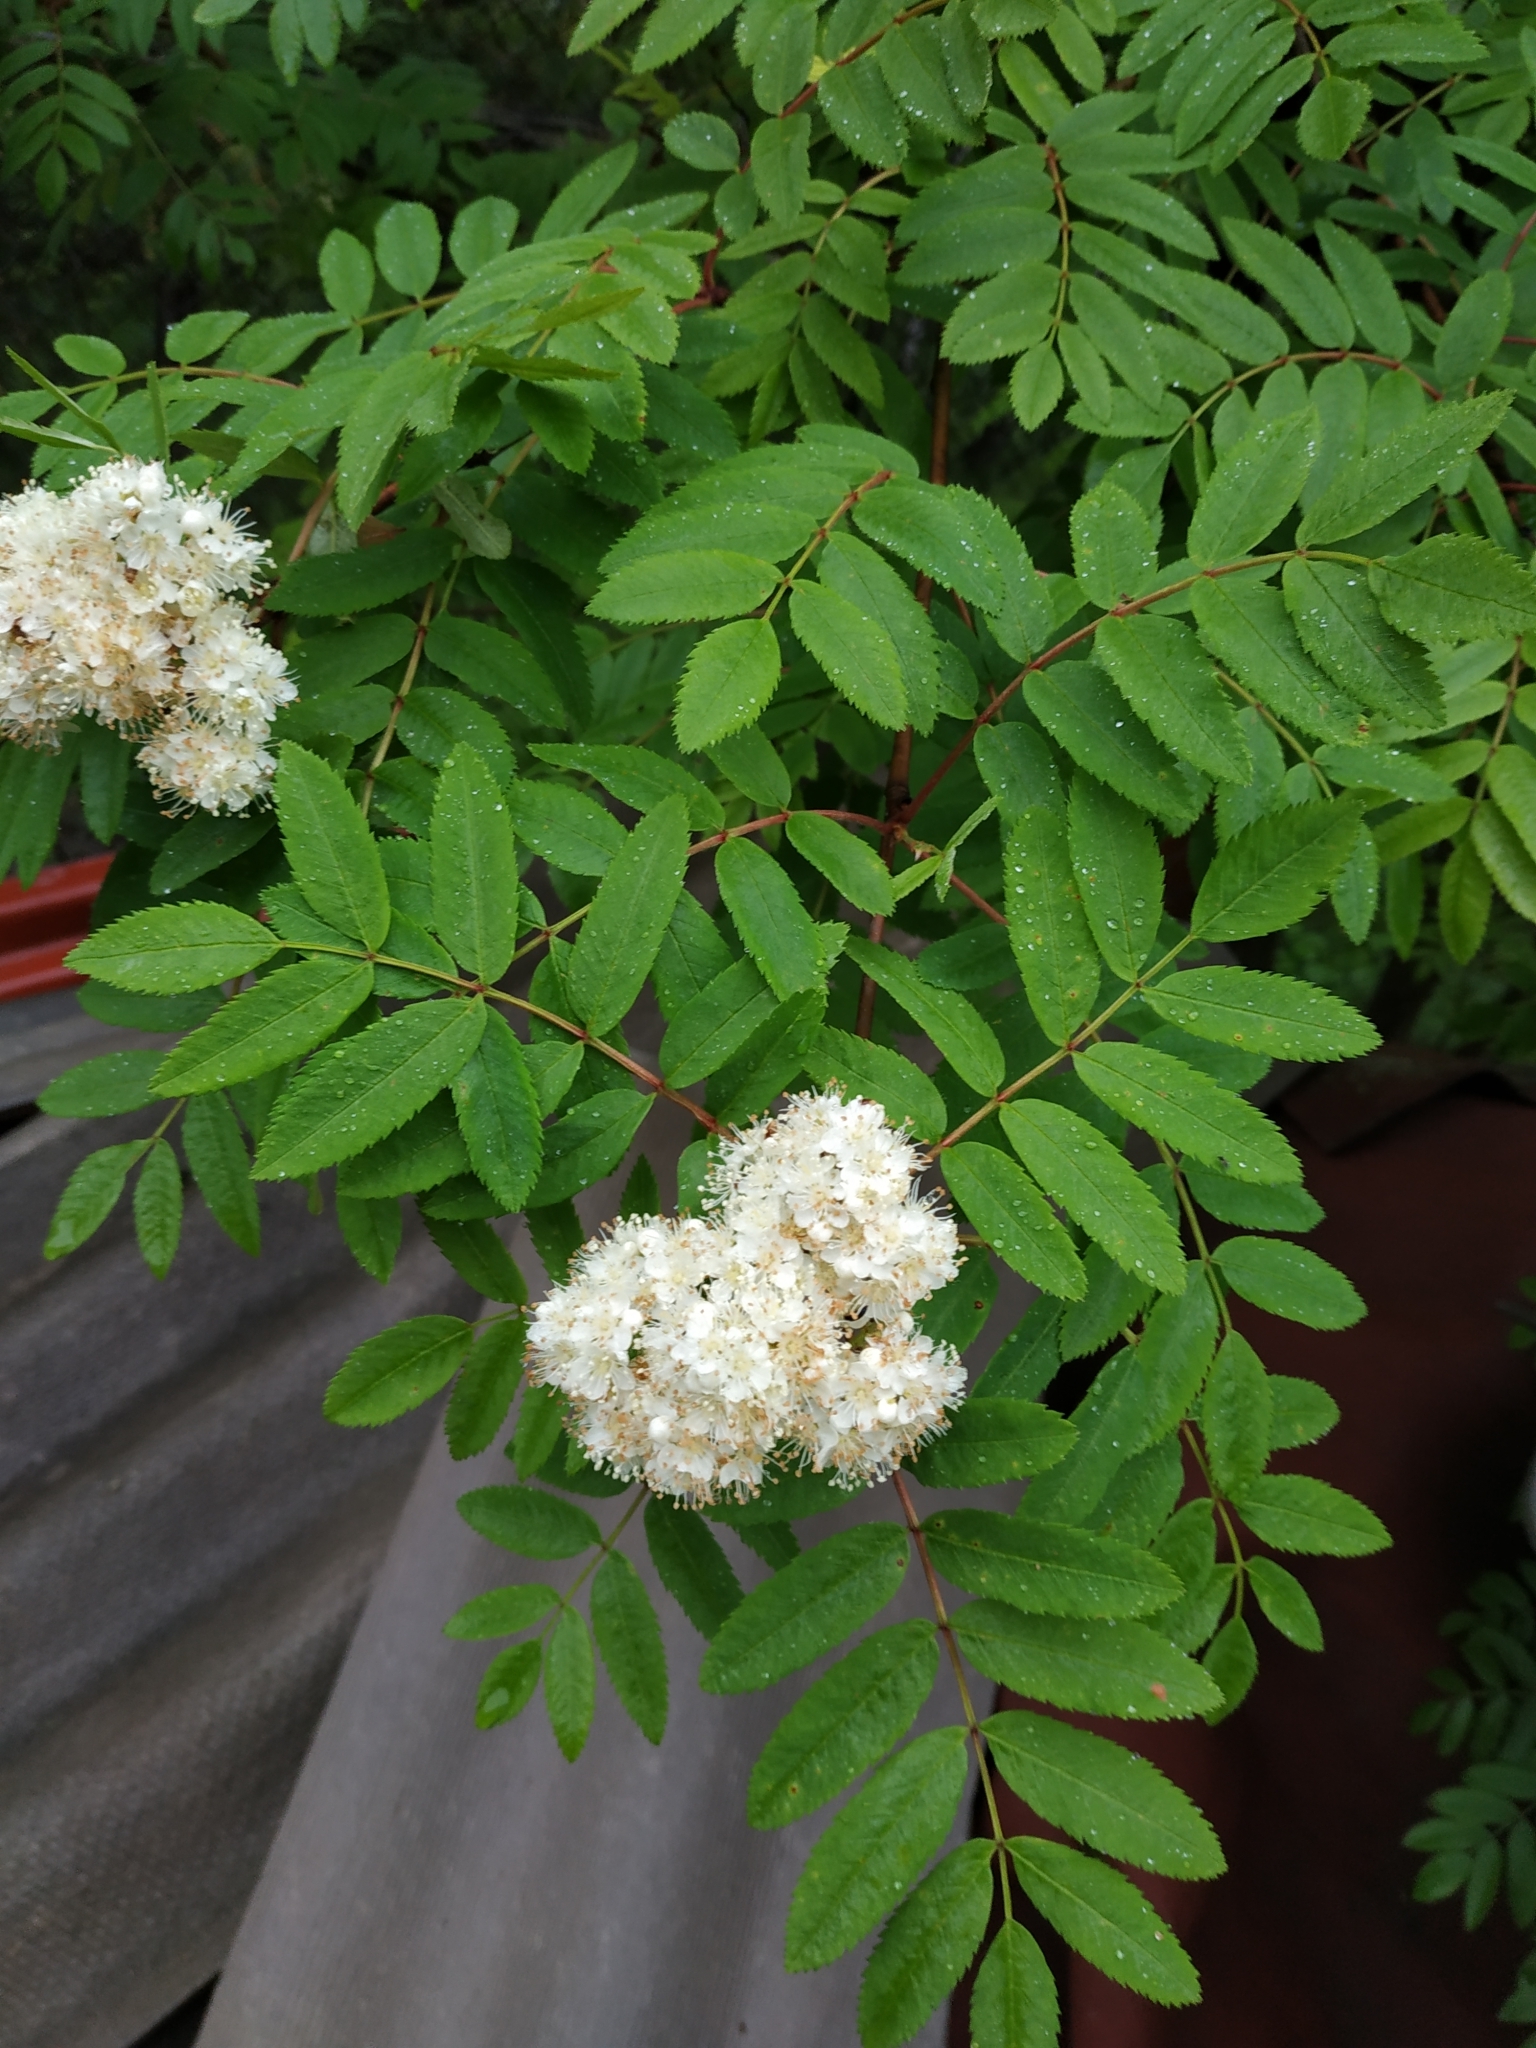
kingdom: Plantae
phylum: Tracheophyta
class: Magnoliopsida
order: Rosales
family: Rosaceae
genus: Sorbus
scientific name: Sorbus aucuparia
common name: Rowan
